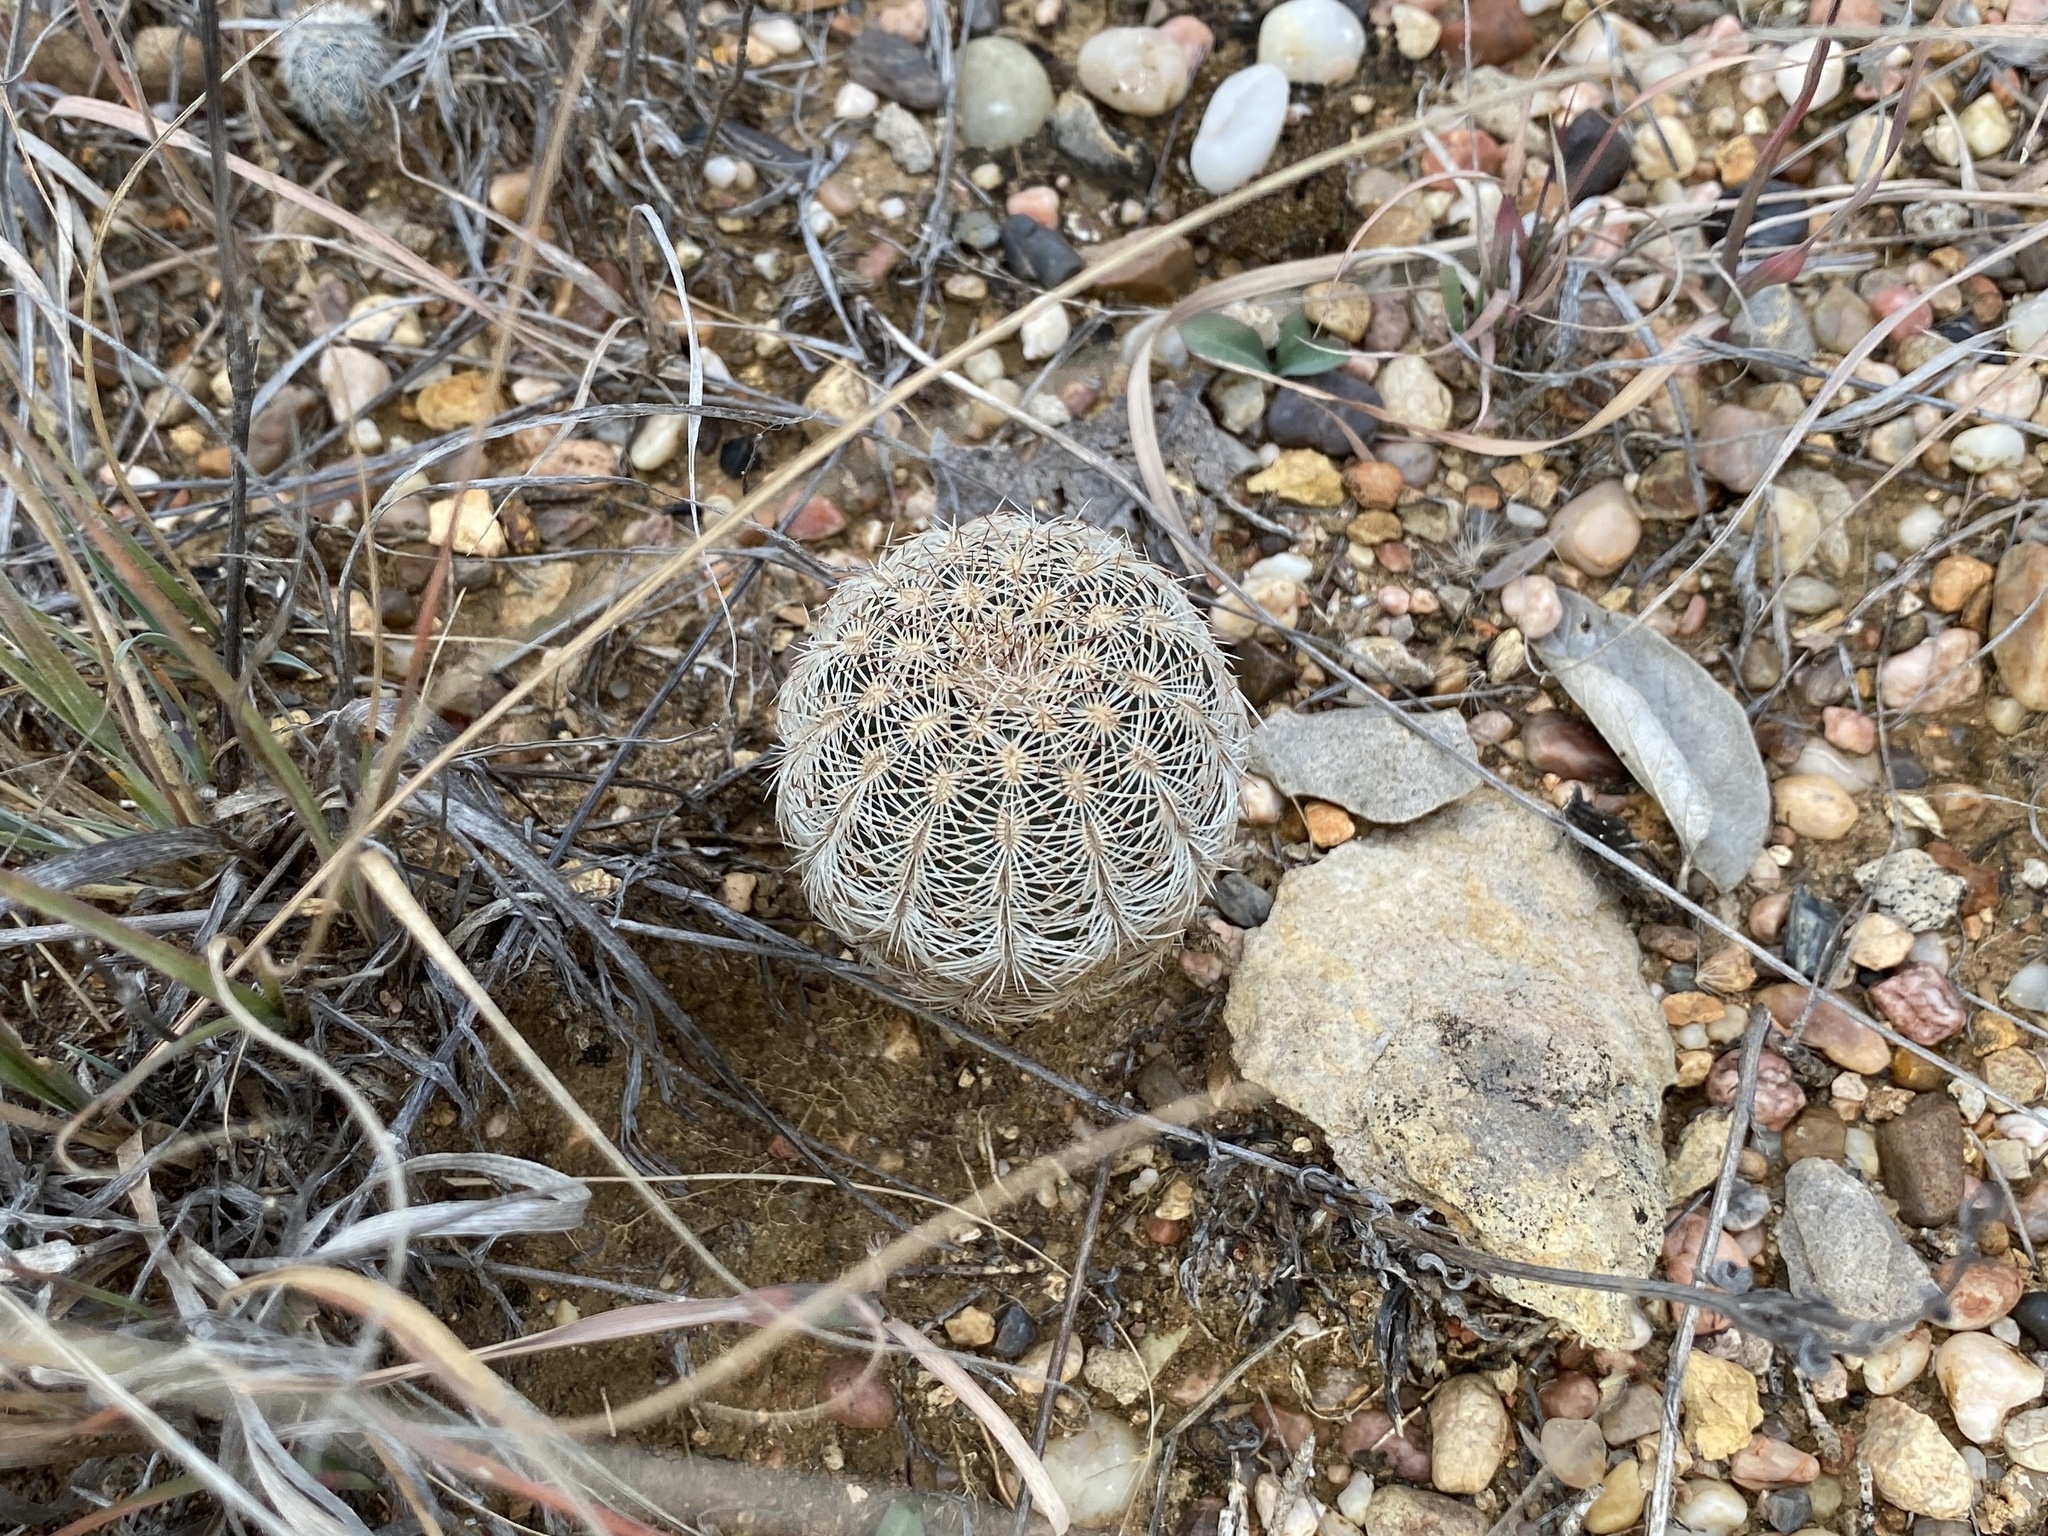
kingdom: Plantae
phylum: Tracheophyta
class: Magnoliopsida
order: Caryophyllales
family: Cactaceae
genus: Echinocereus
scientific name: Echinocereus reichenbachii
